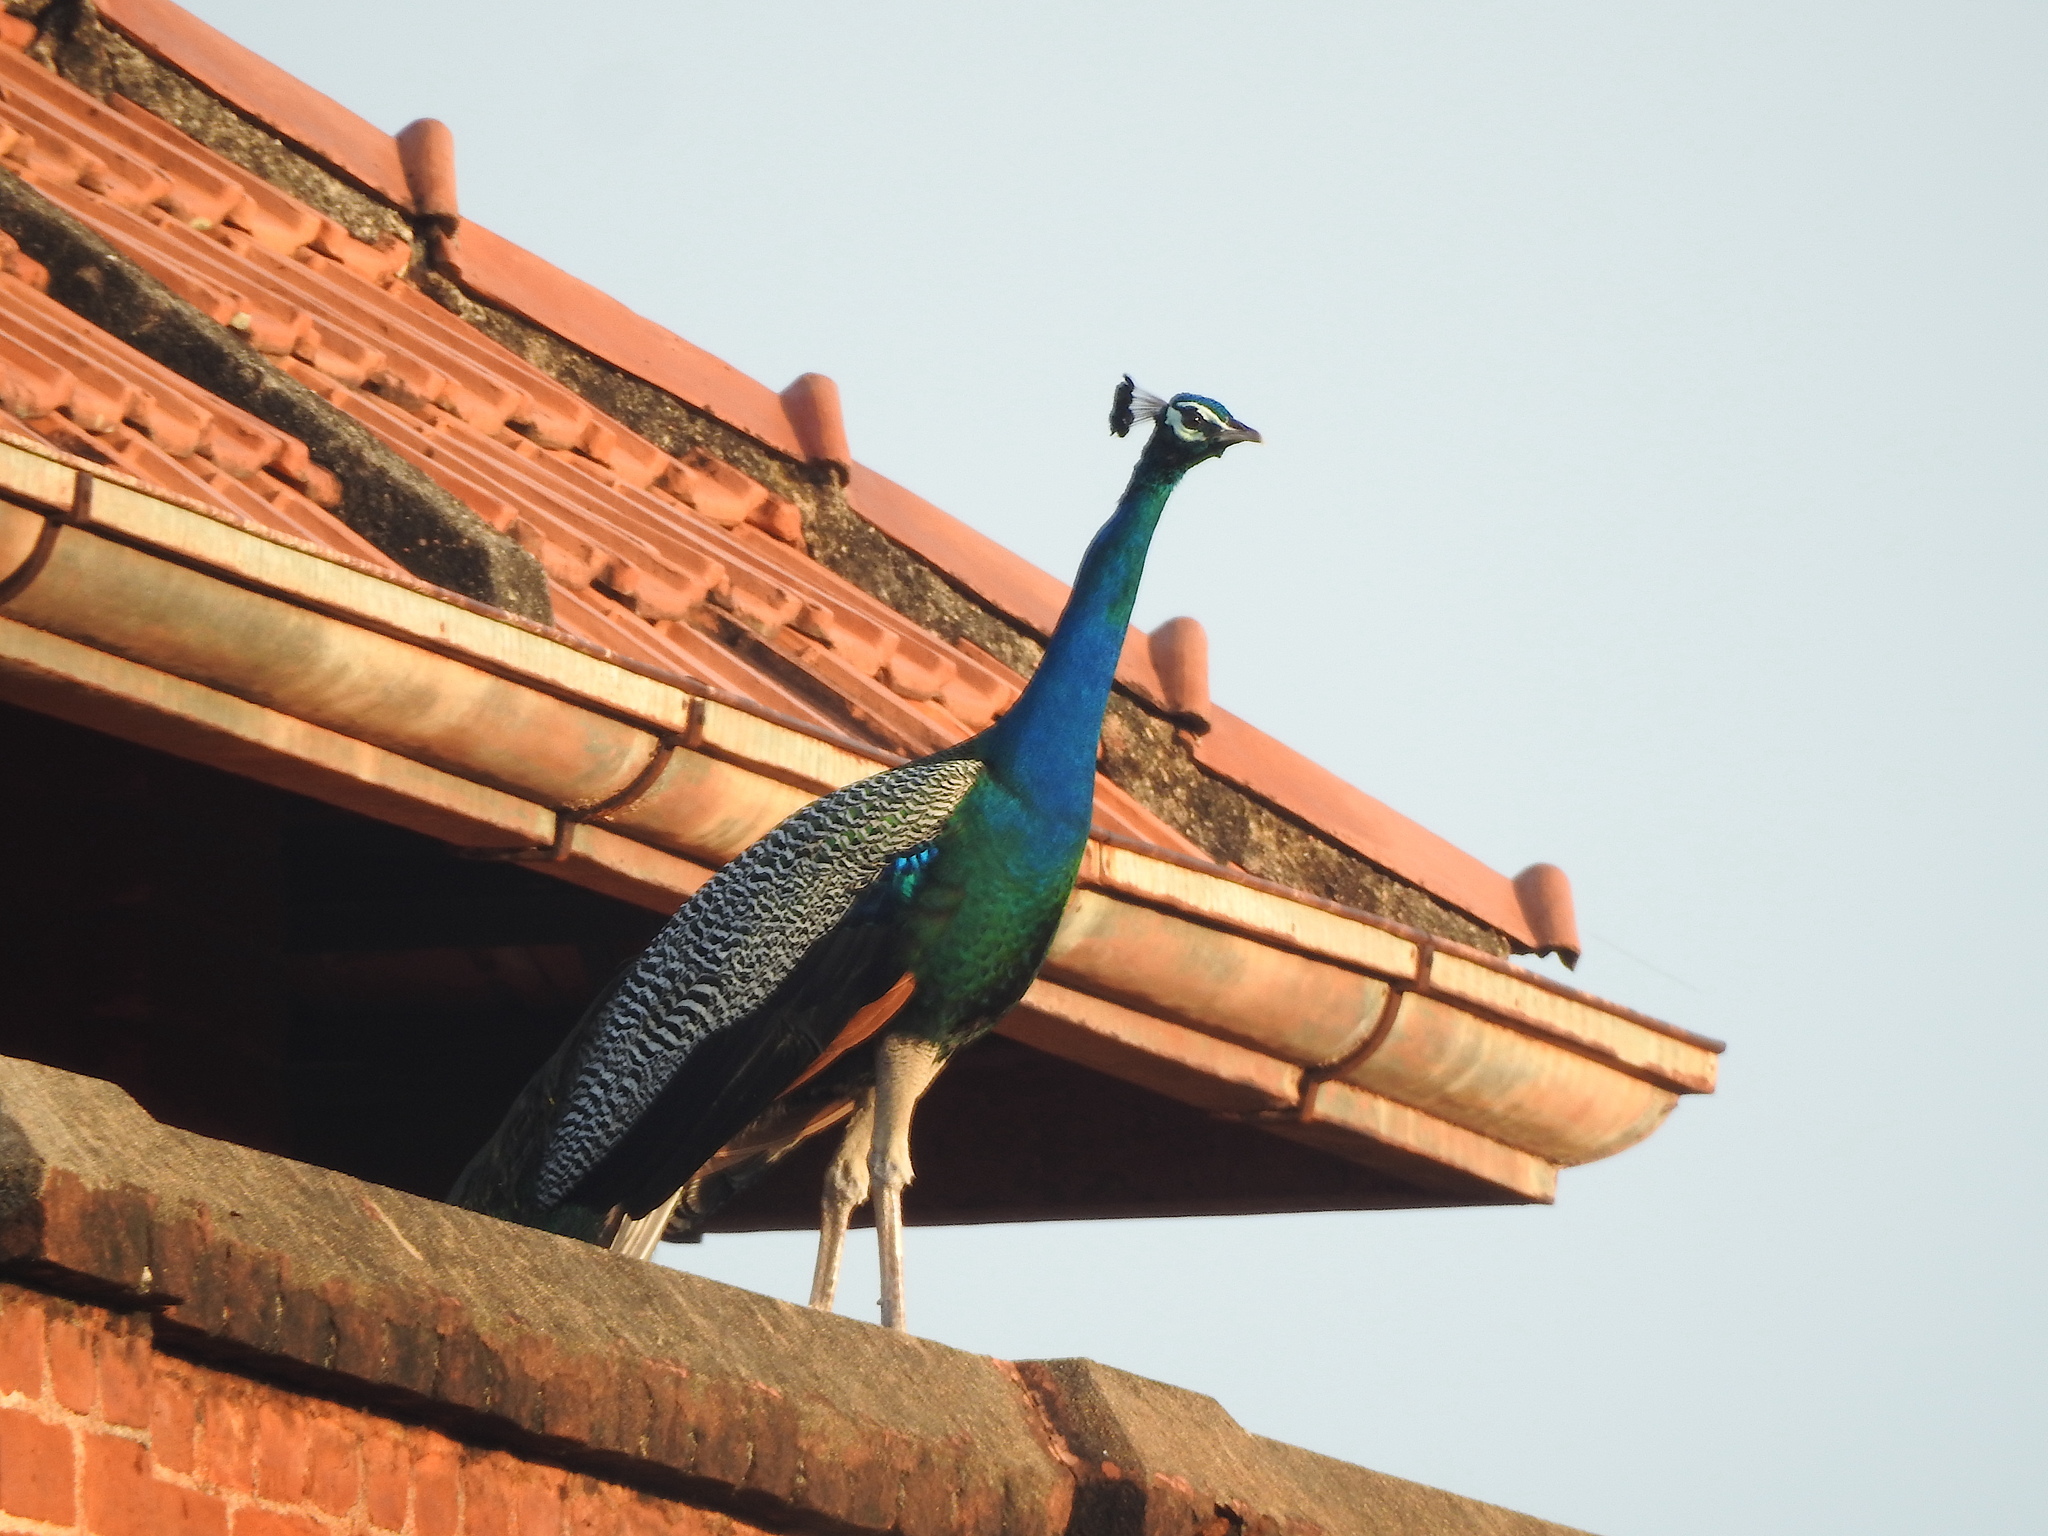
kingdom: Animalia
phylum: Chordata
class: Aves
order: Galliformes
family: Phasianidae
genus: Pavo
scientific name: Pavo cristatus
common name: Indian peafowl
